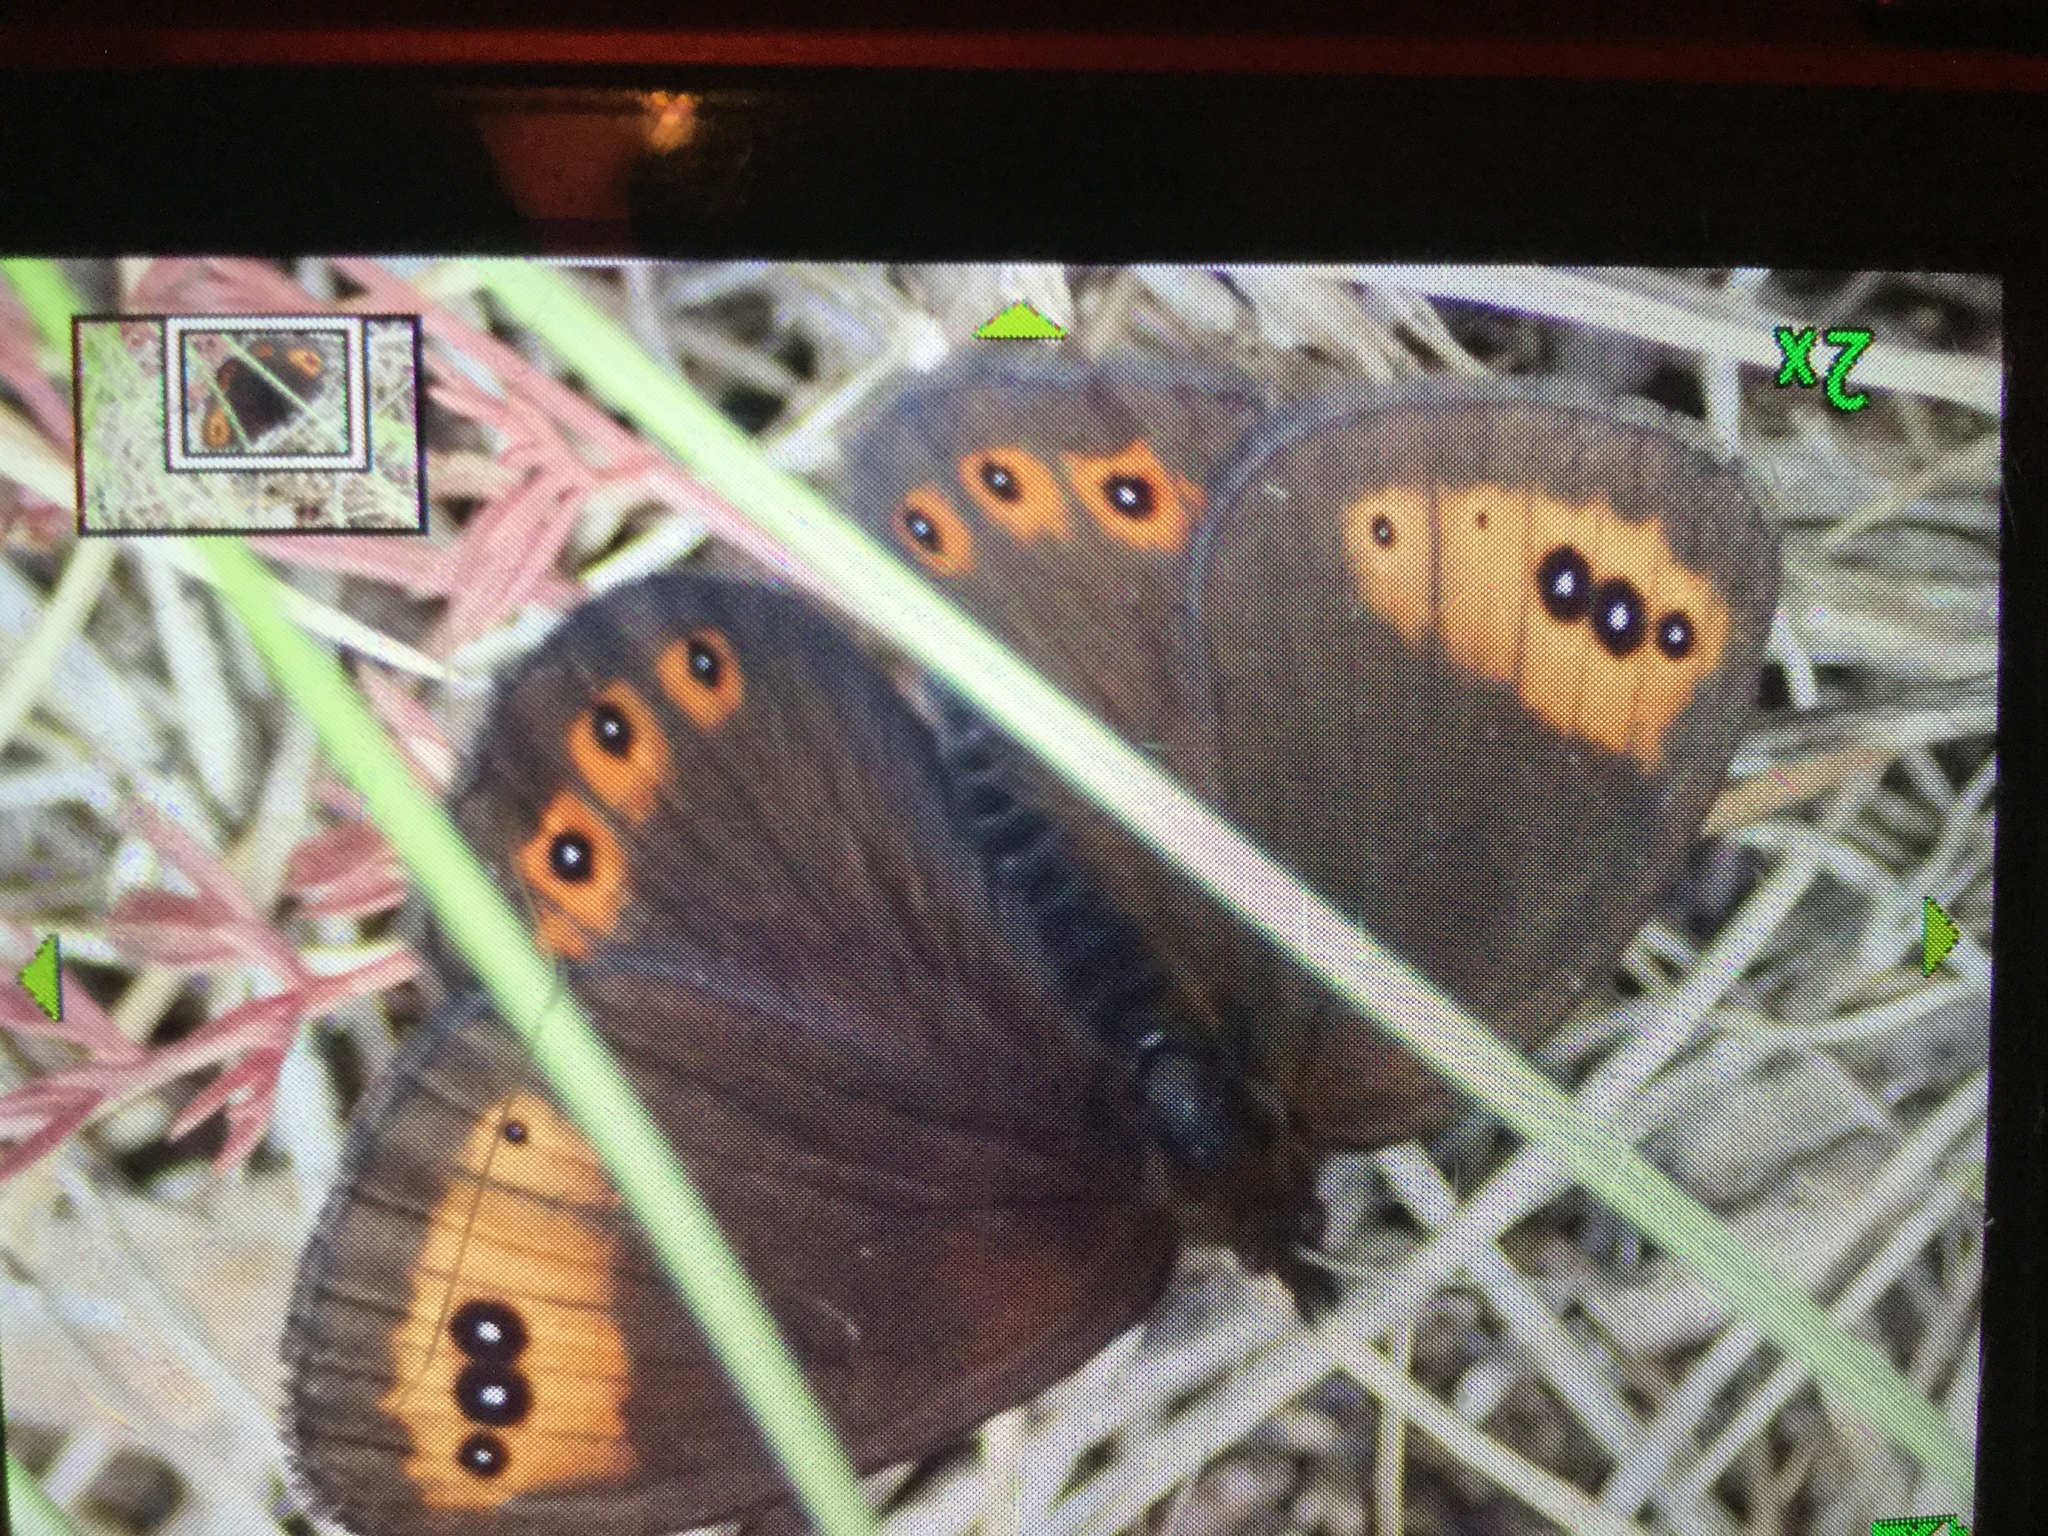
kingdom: Animalia
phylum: Arthropoda
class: Insecta
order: Lepidoptera
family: Nymphalidae
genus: Erebia
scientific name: Erebia triarius
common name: De prunner’s ringlet
